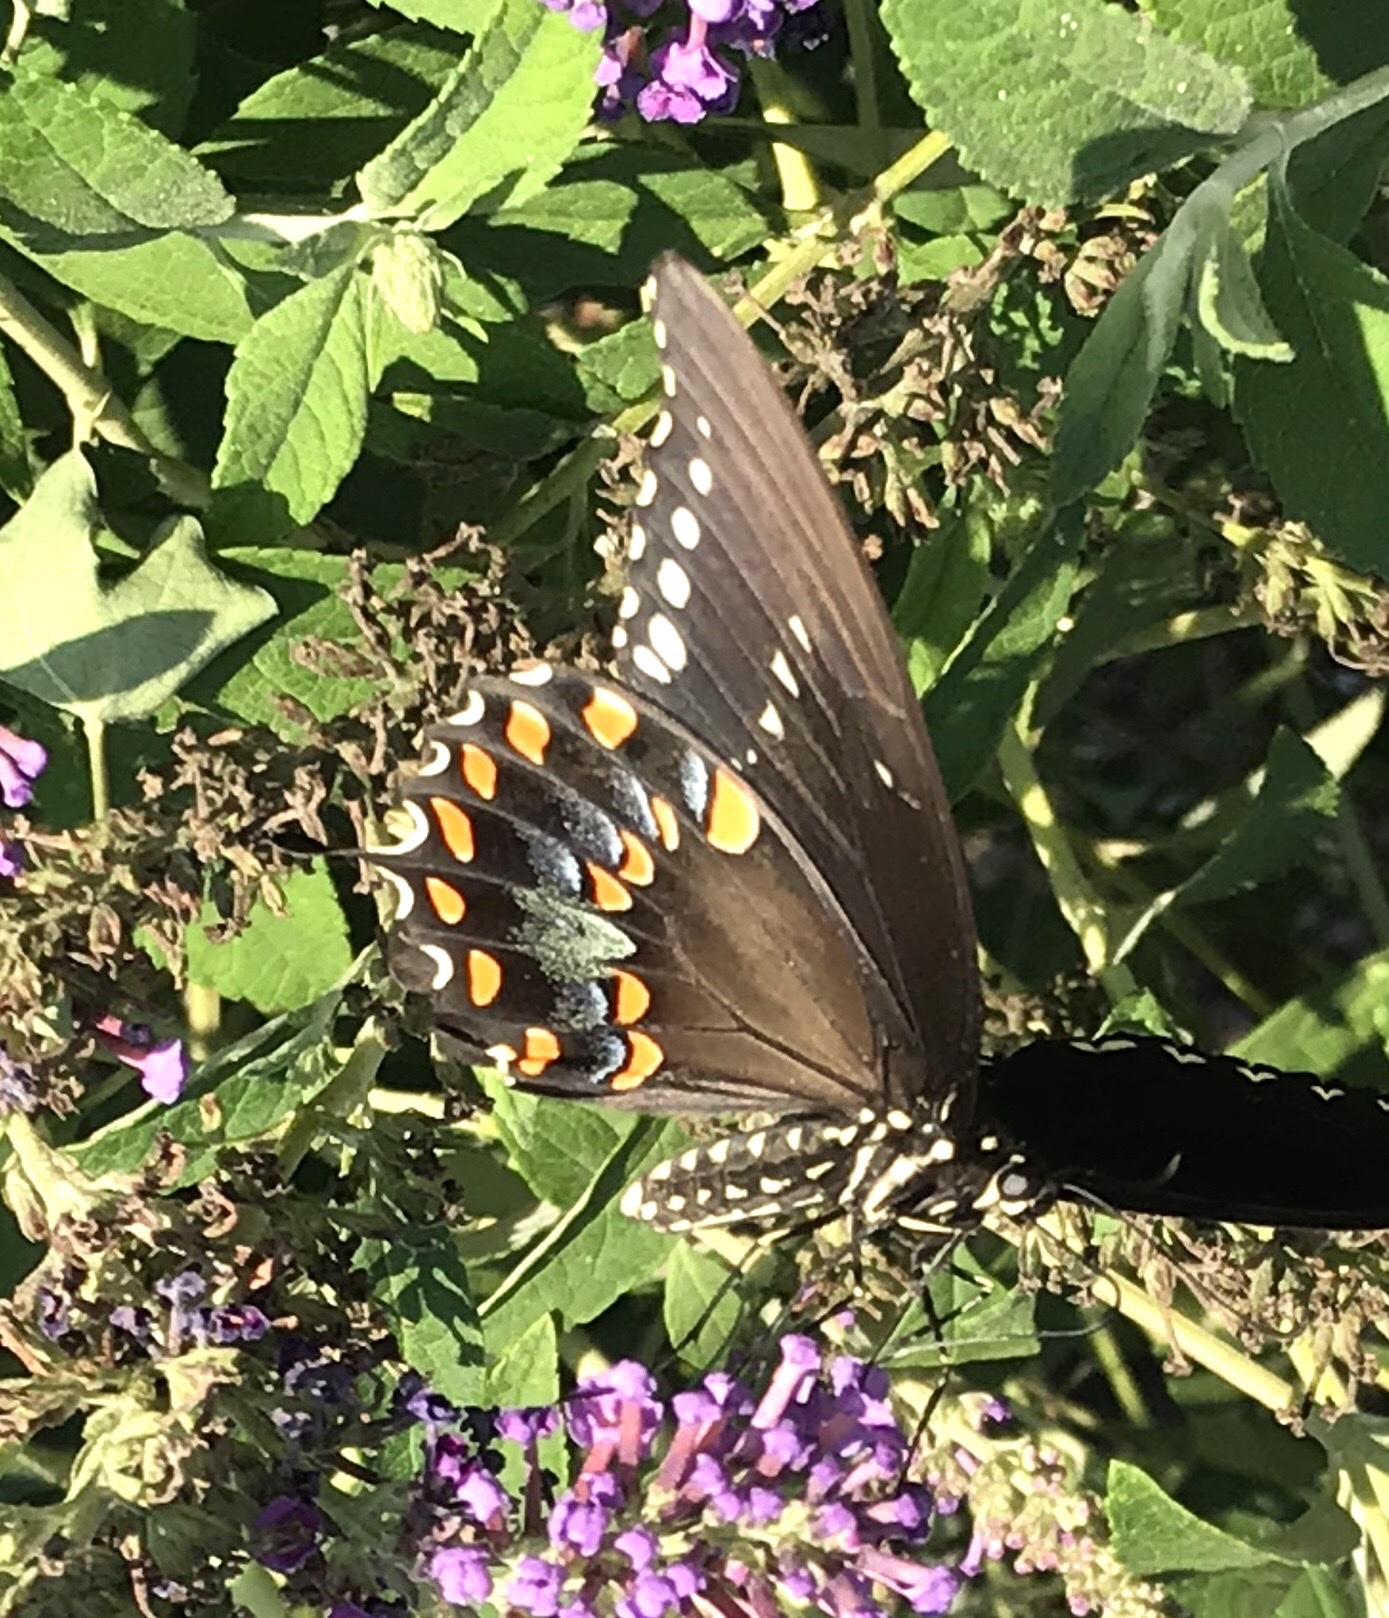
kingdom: Animalia
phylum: Arthropoda
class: Insecta
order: Lepidoptera
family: Papilionidae
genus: Papilio
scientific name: Papilio troilus
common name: Spicebush swallowtail
